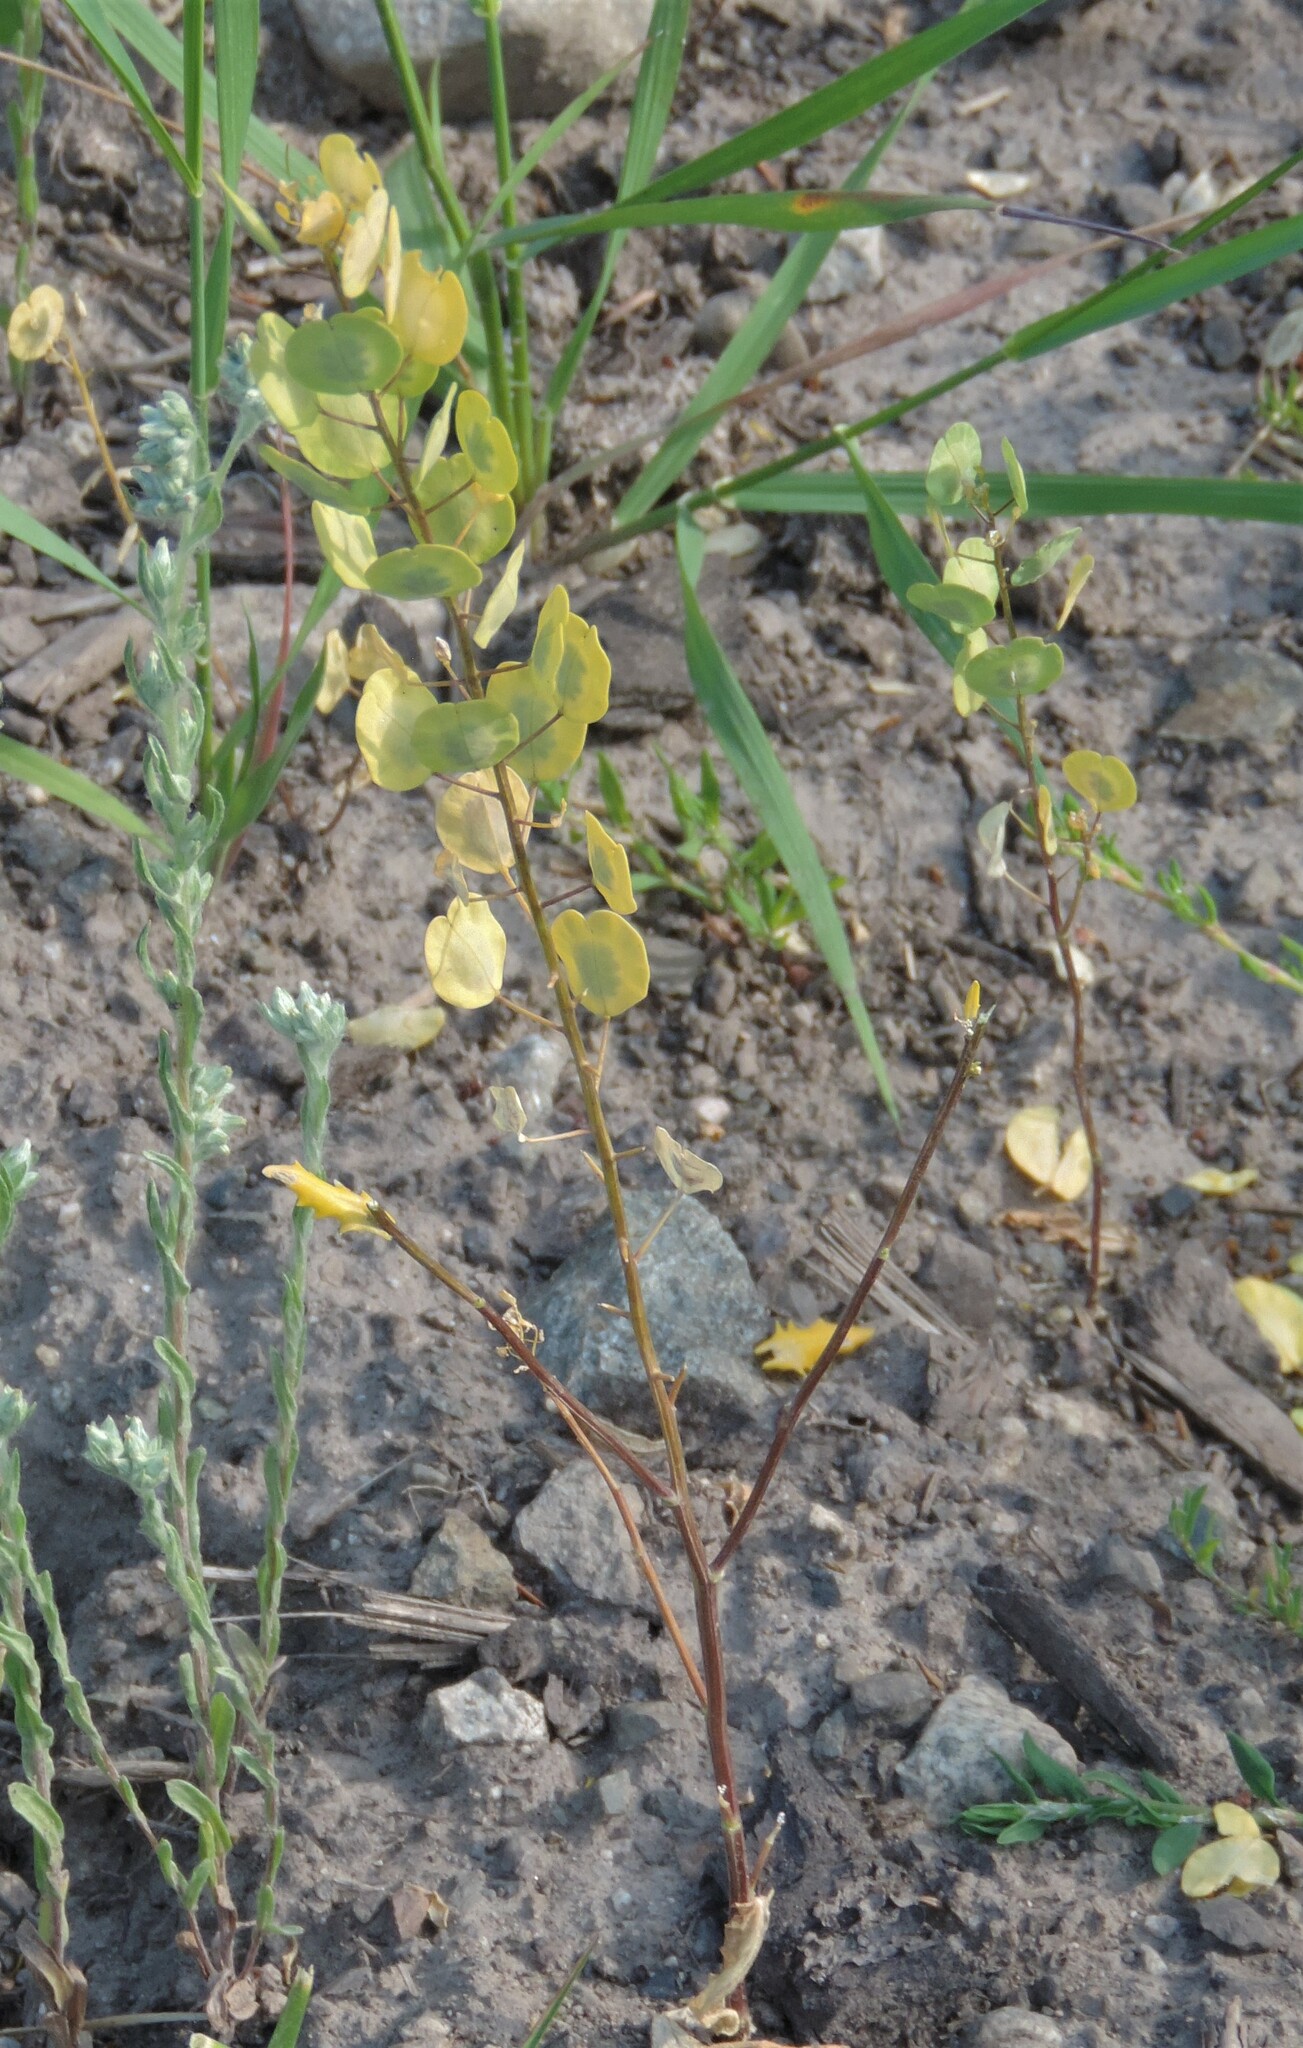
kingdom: Plantae
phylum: Tracheophyta
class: Magnoliopsida
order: Brassicales
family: Brassicaceae
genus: Thlaspi
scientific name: Thlaspi arvense
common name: Field pennycress
